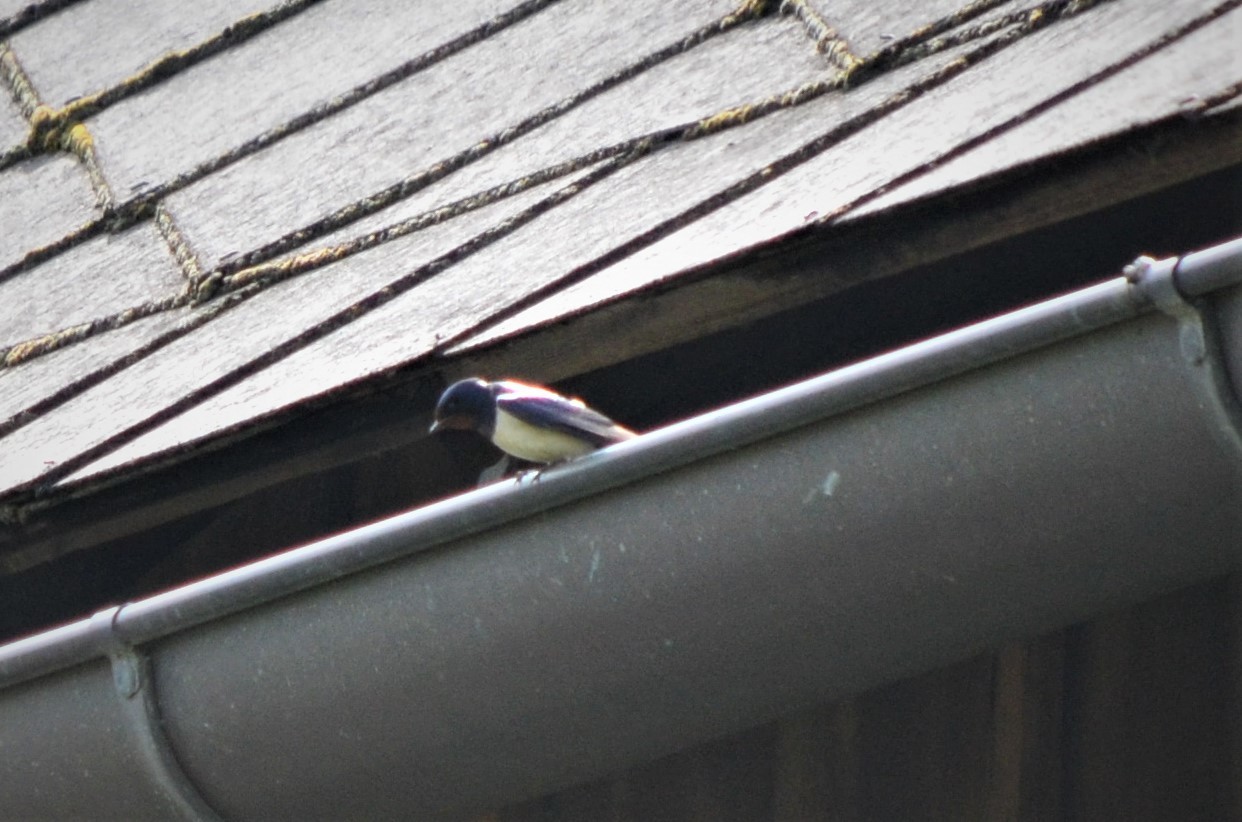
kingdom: Animalia
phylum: Chordata
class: Aves
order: Passeriformes
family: Hirundinidae
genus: Hirundo
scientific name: Hirundo rustica
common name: Barn swallow
